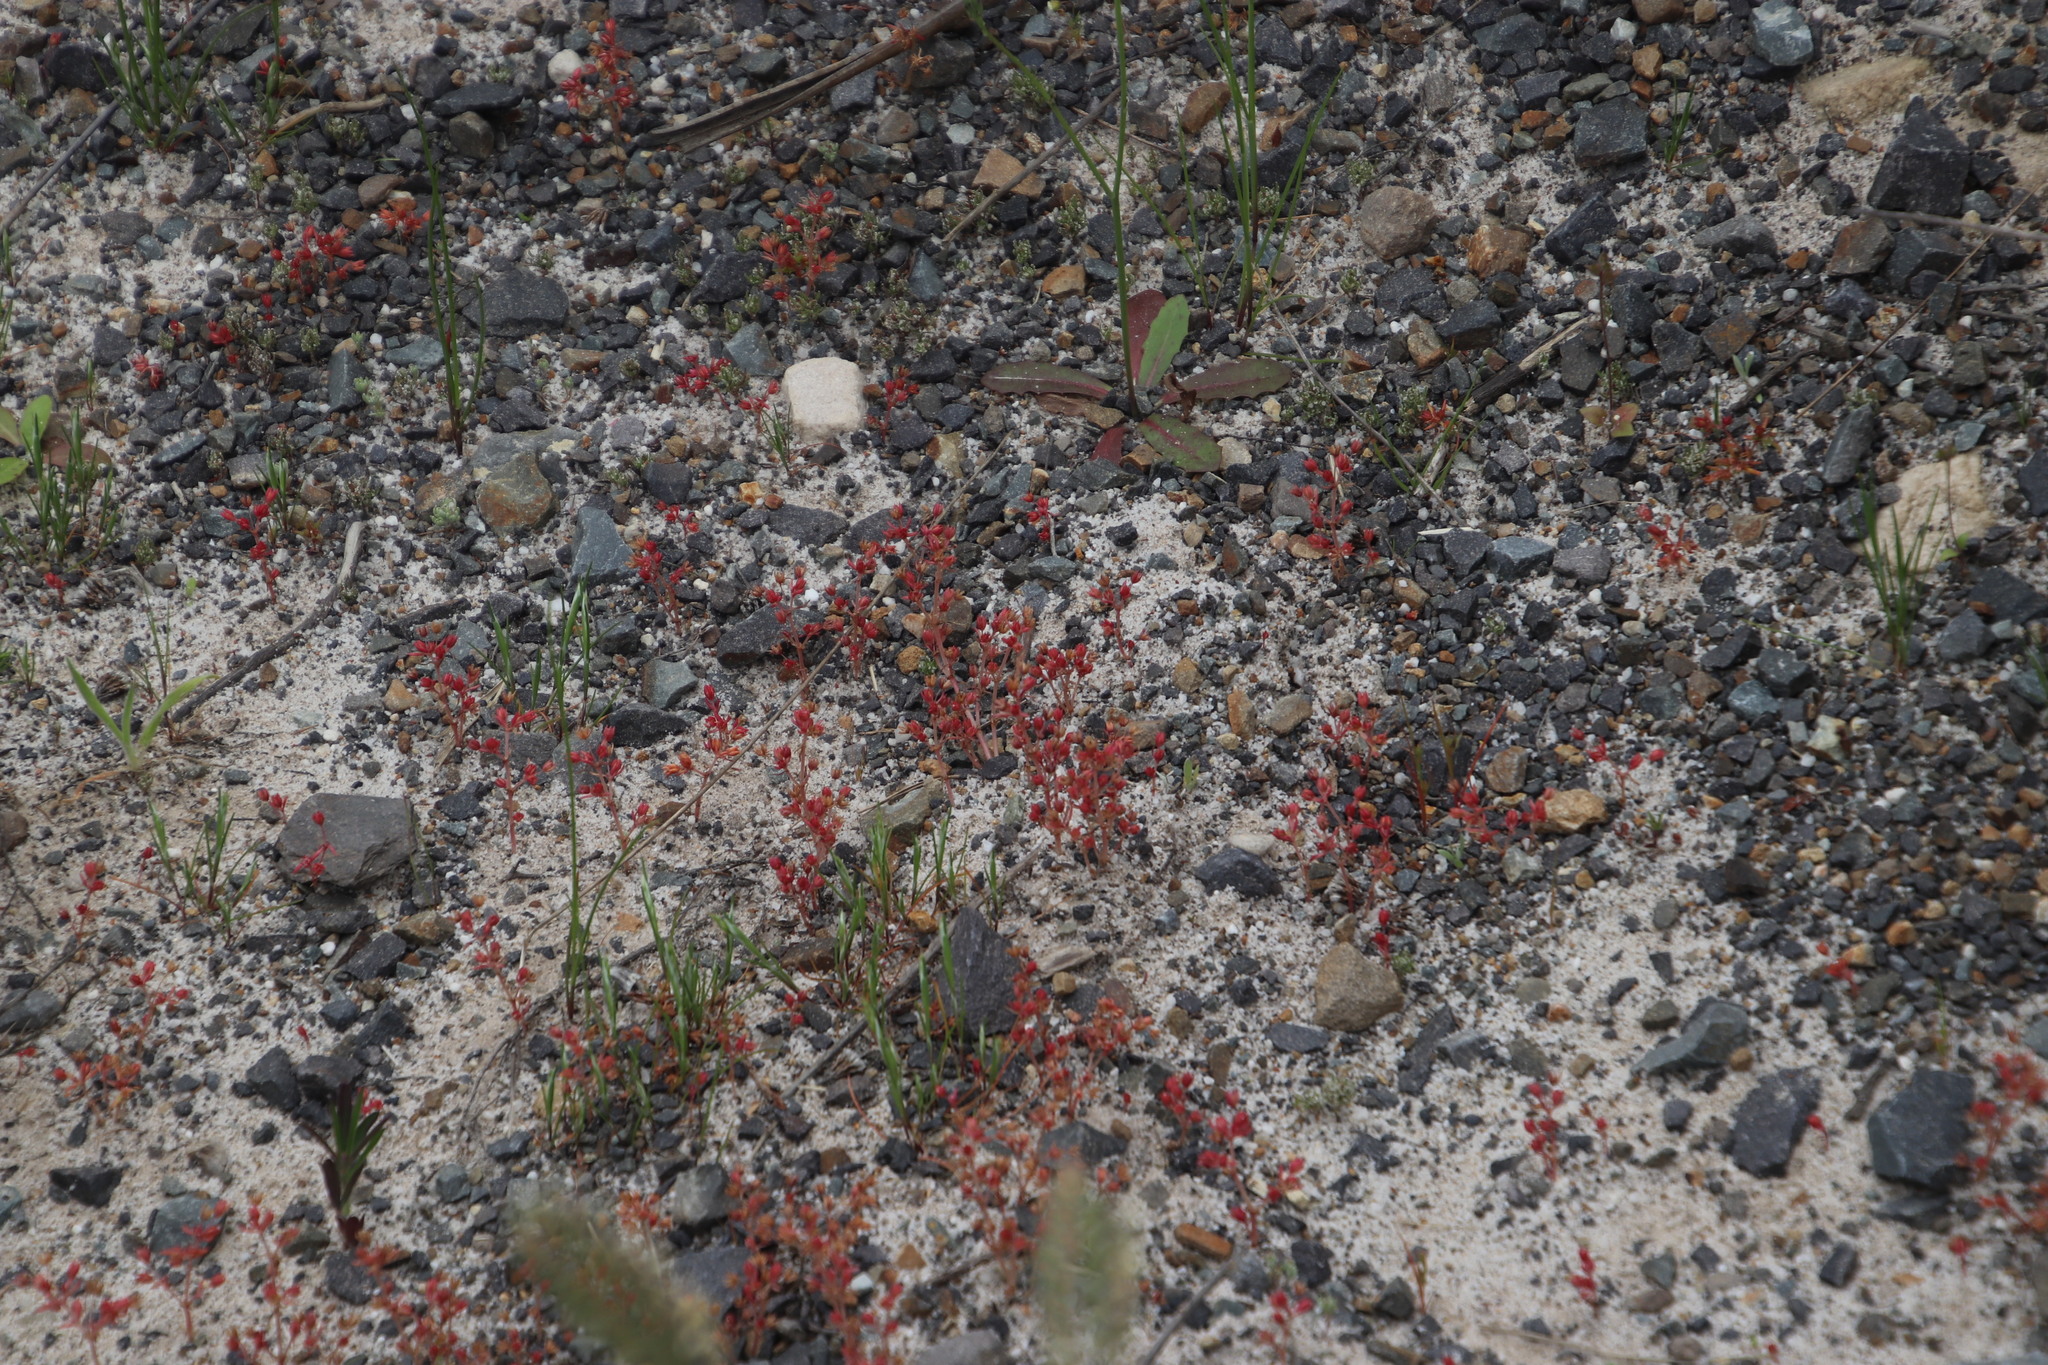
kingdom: Plantae
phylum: Tracheophyta
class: Magnoliopsida
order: Saxifragales
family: Crassulaceae
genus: Crassula
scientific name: Crassula glomerata
